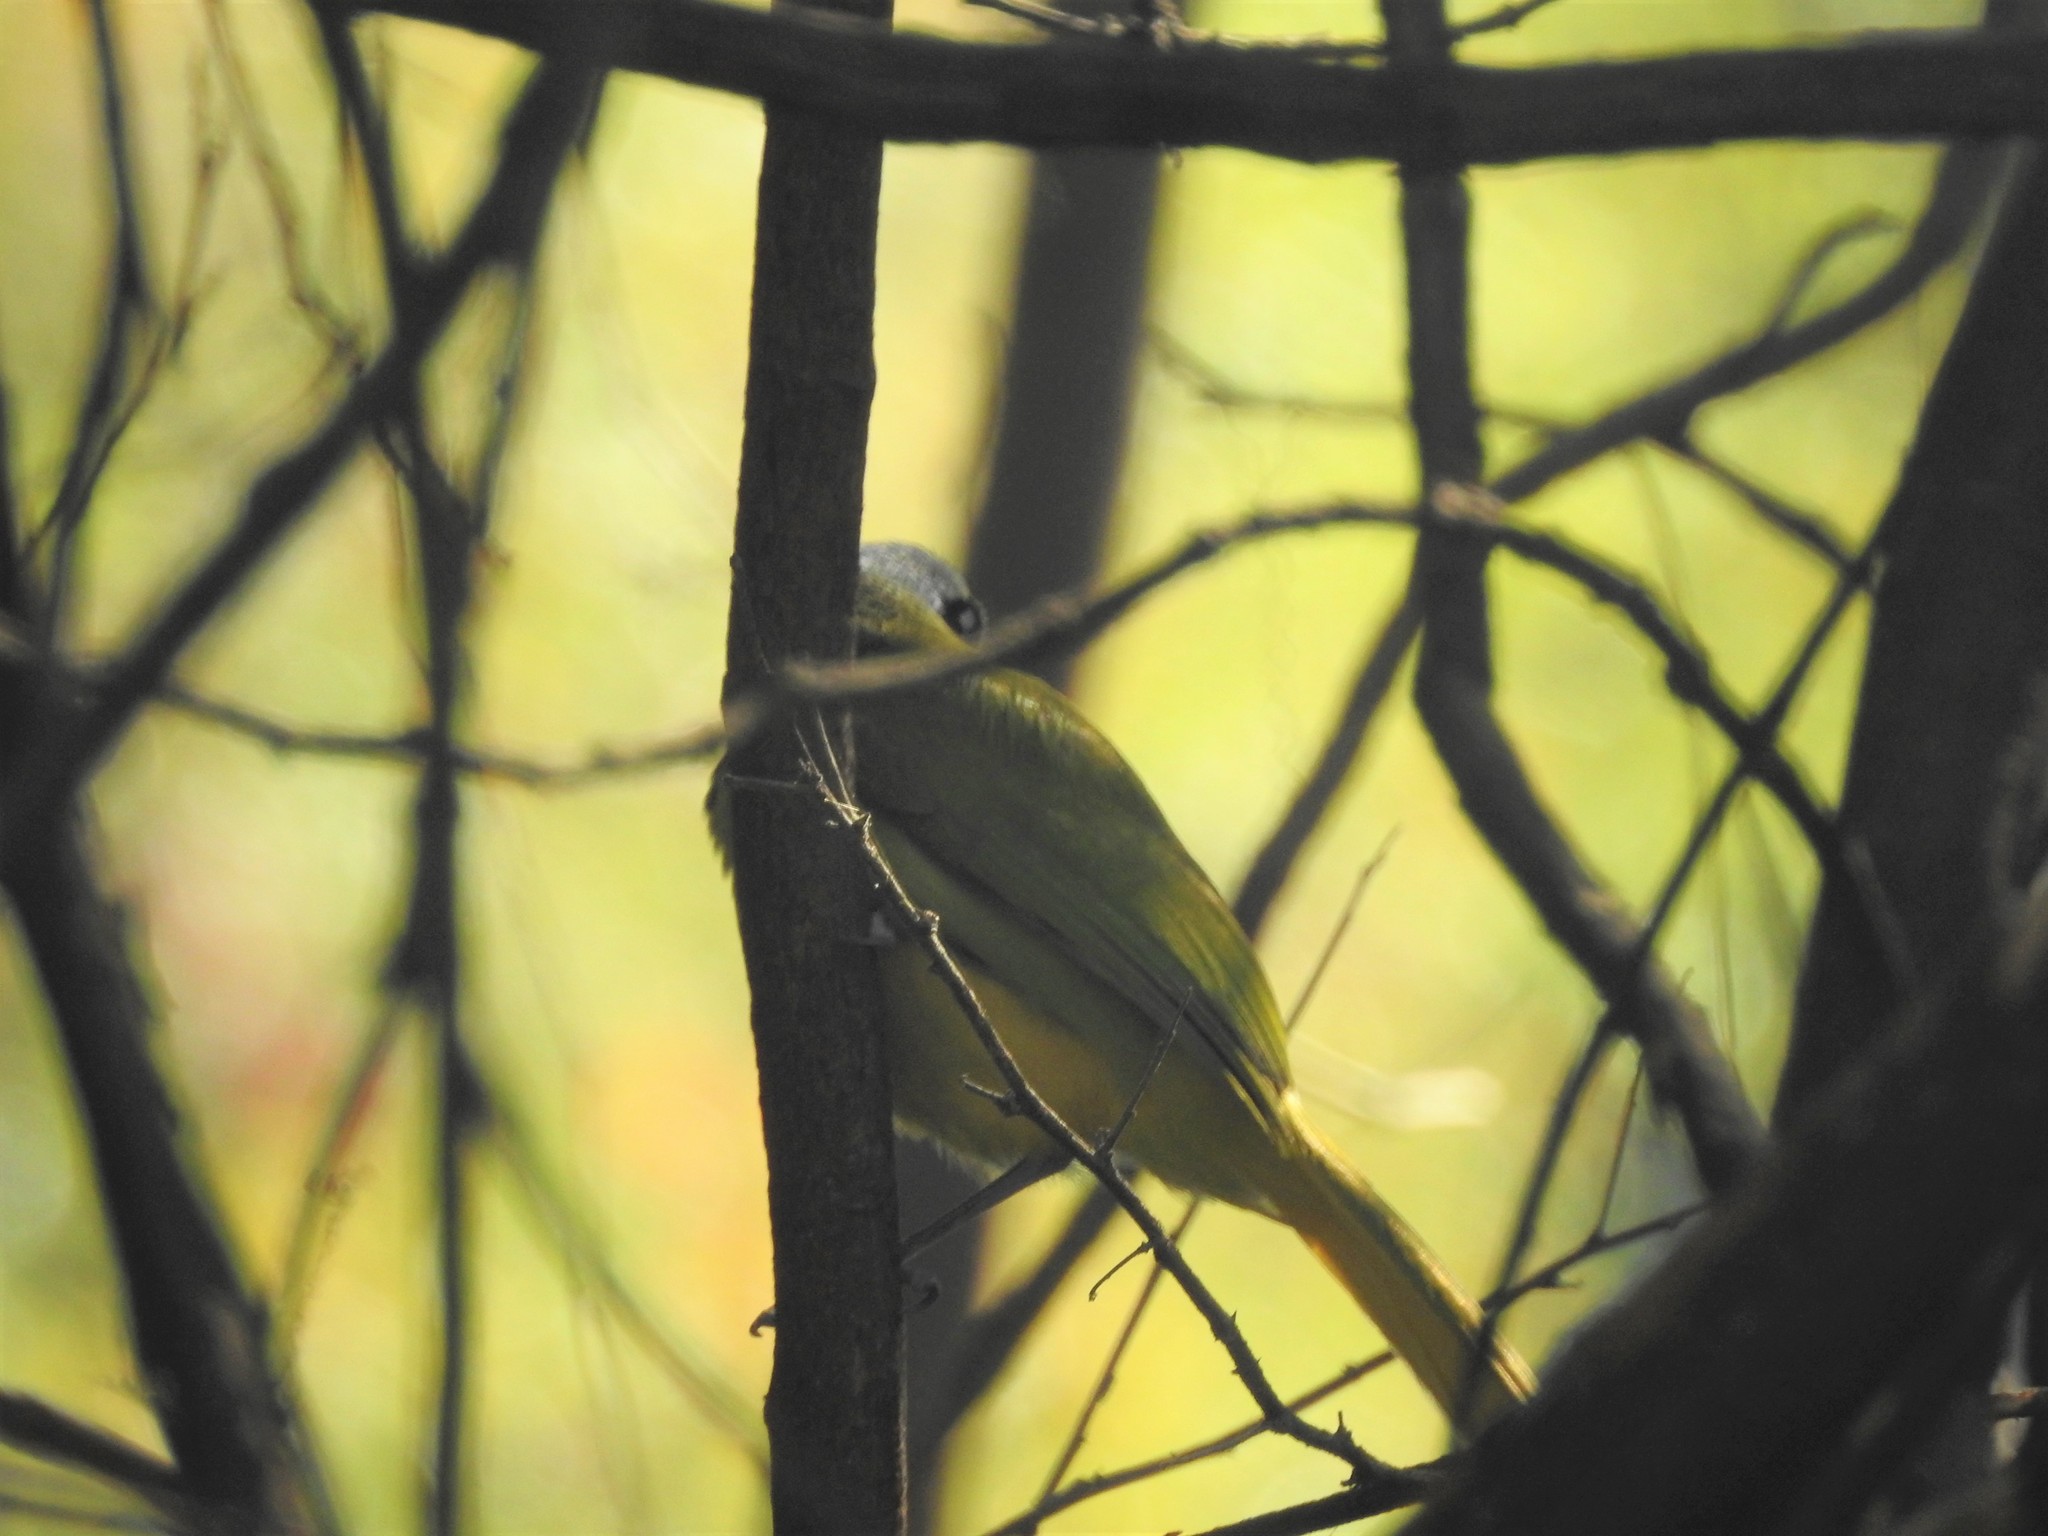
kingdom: Animalia
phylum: Chordata
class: Aves
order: Passeriformes
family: Corvidae
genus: Cyanocorax
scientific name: Cyanocorax yncas
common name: Green jay
